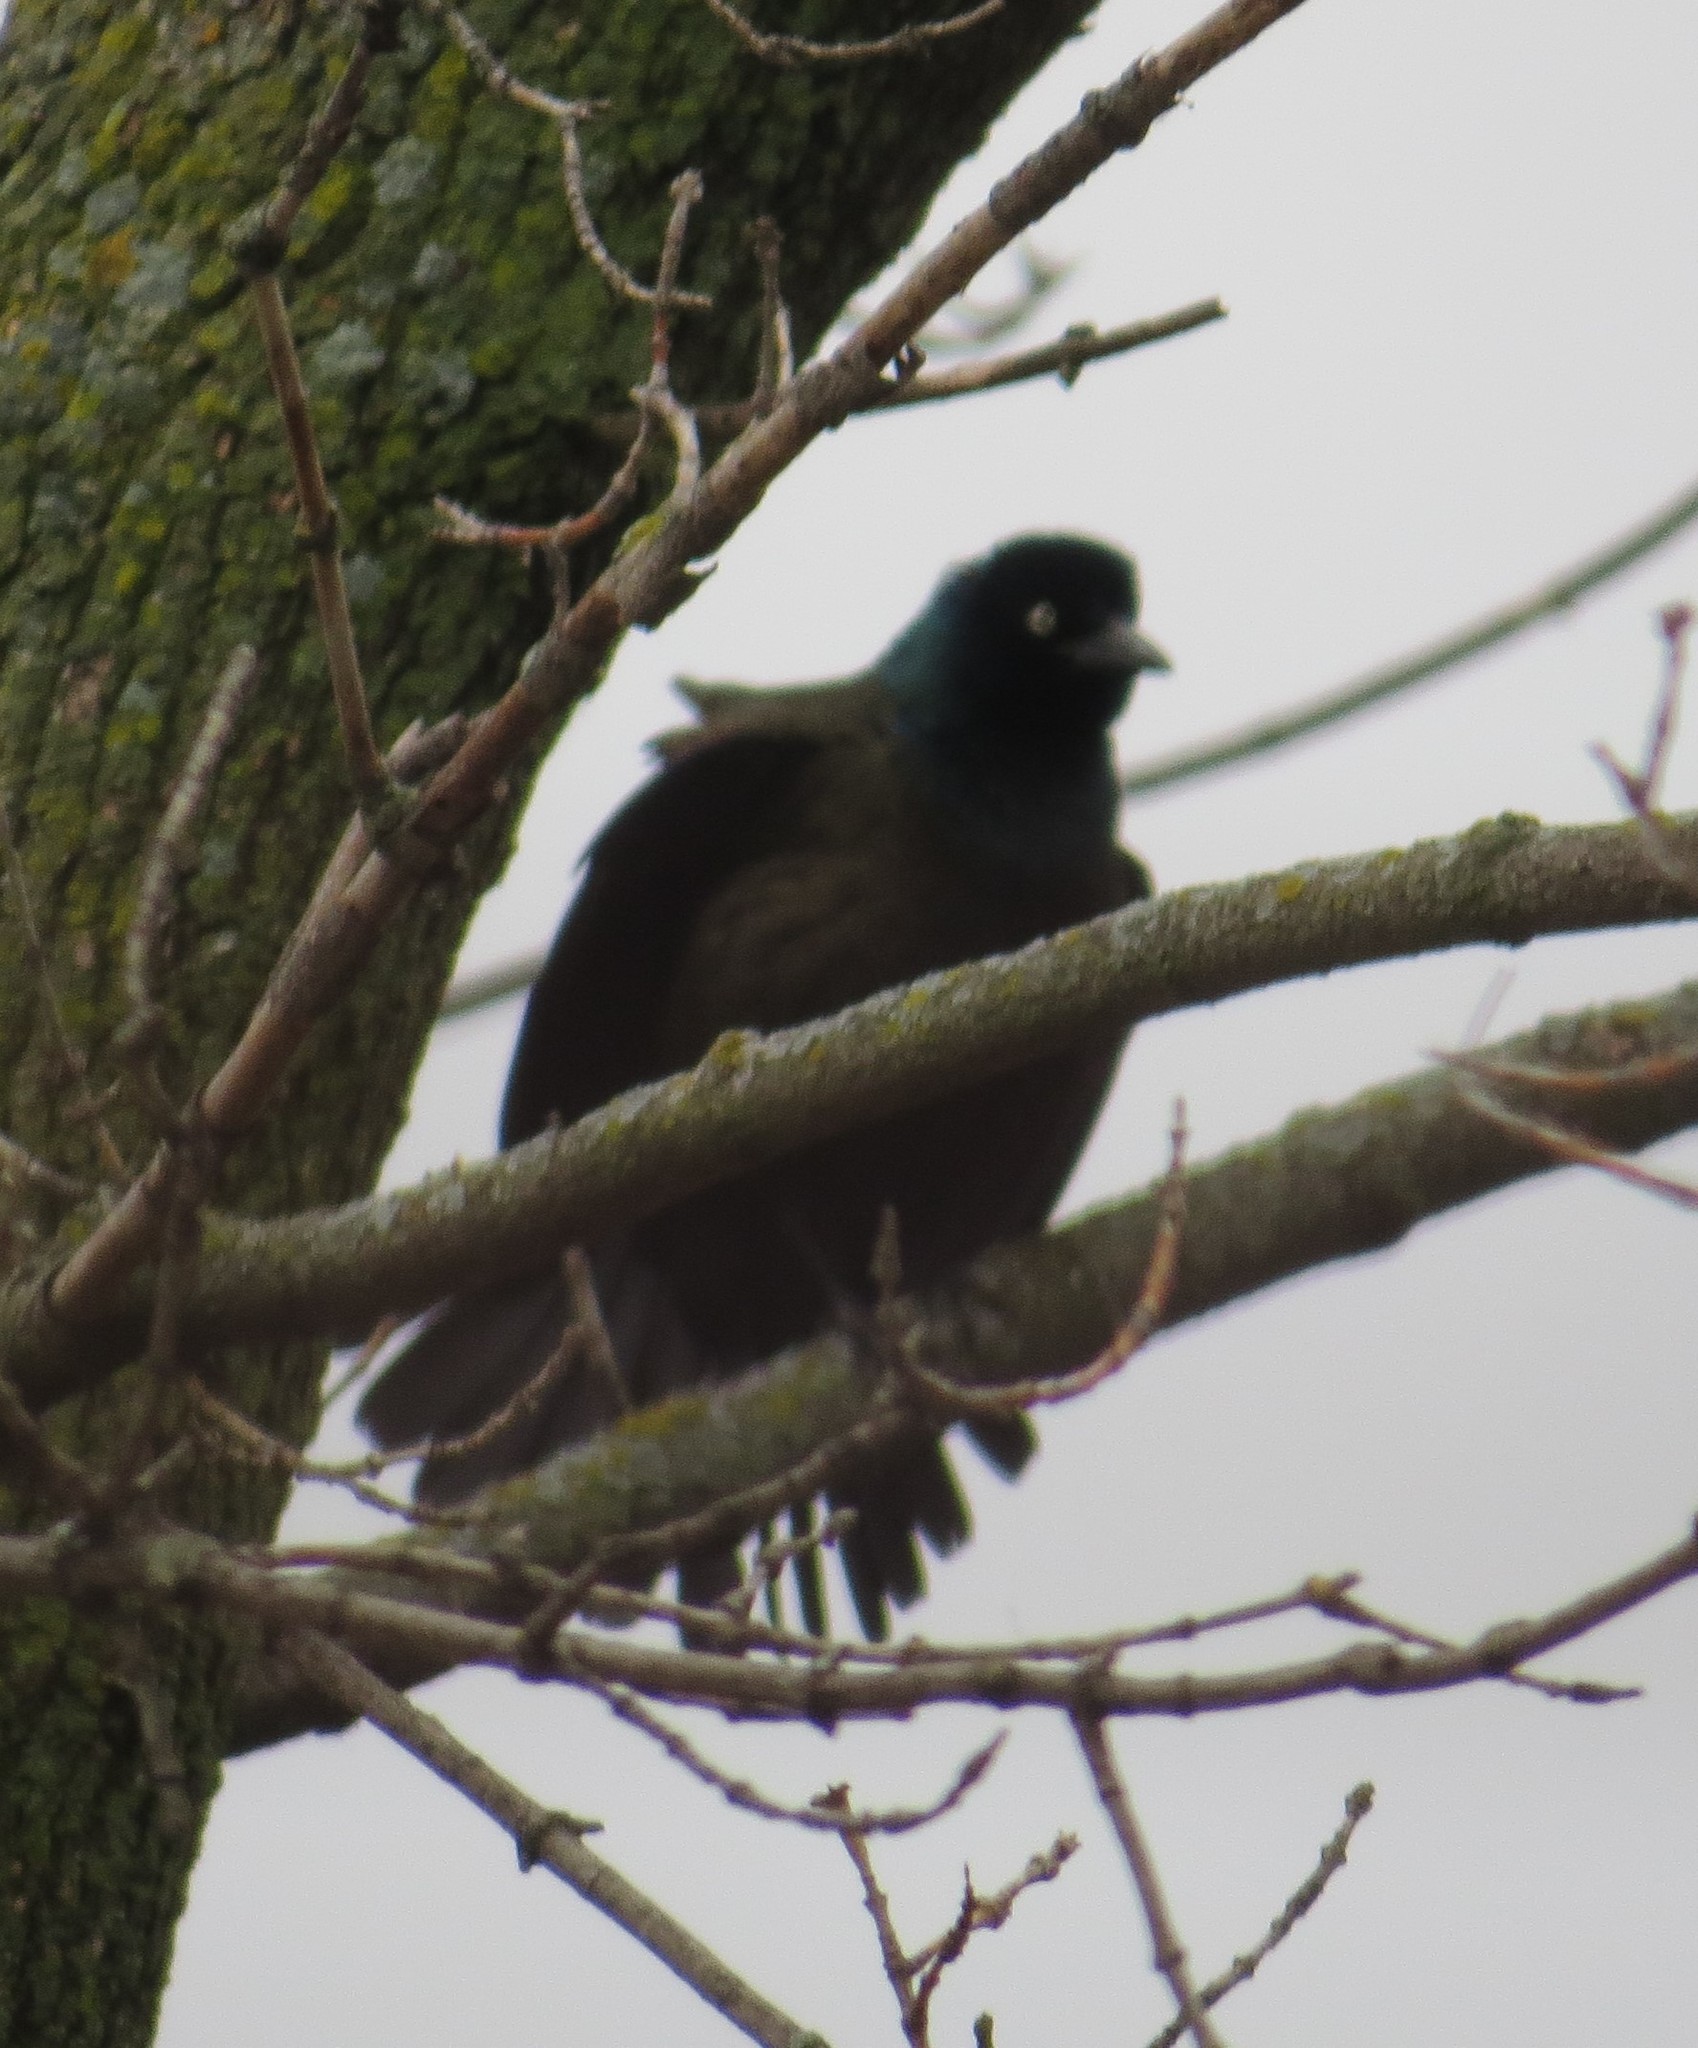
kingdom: Animalia
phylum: Chordata
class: Aves
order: Passeriformes
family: Icteridae
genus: Quiscalus
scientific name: Quiscalus quiscula
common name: Common grackle
